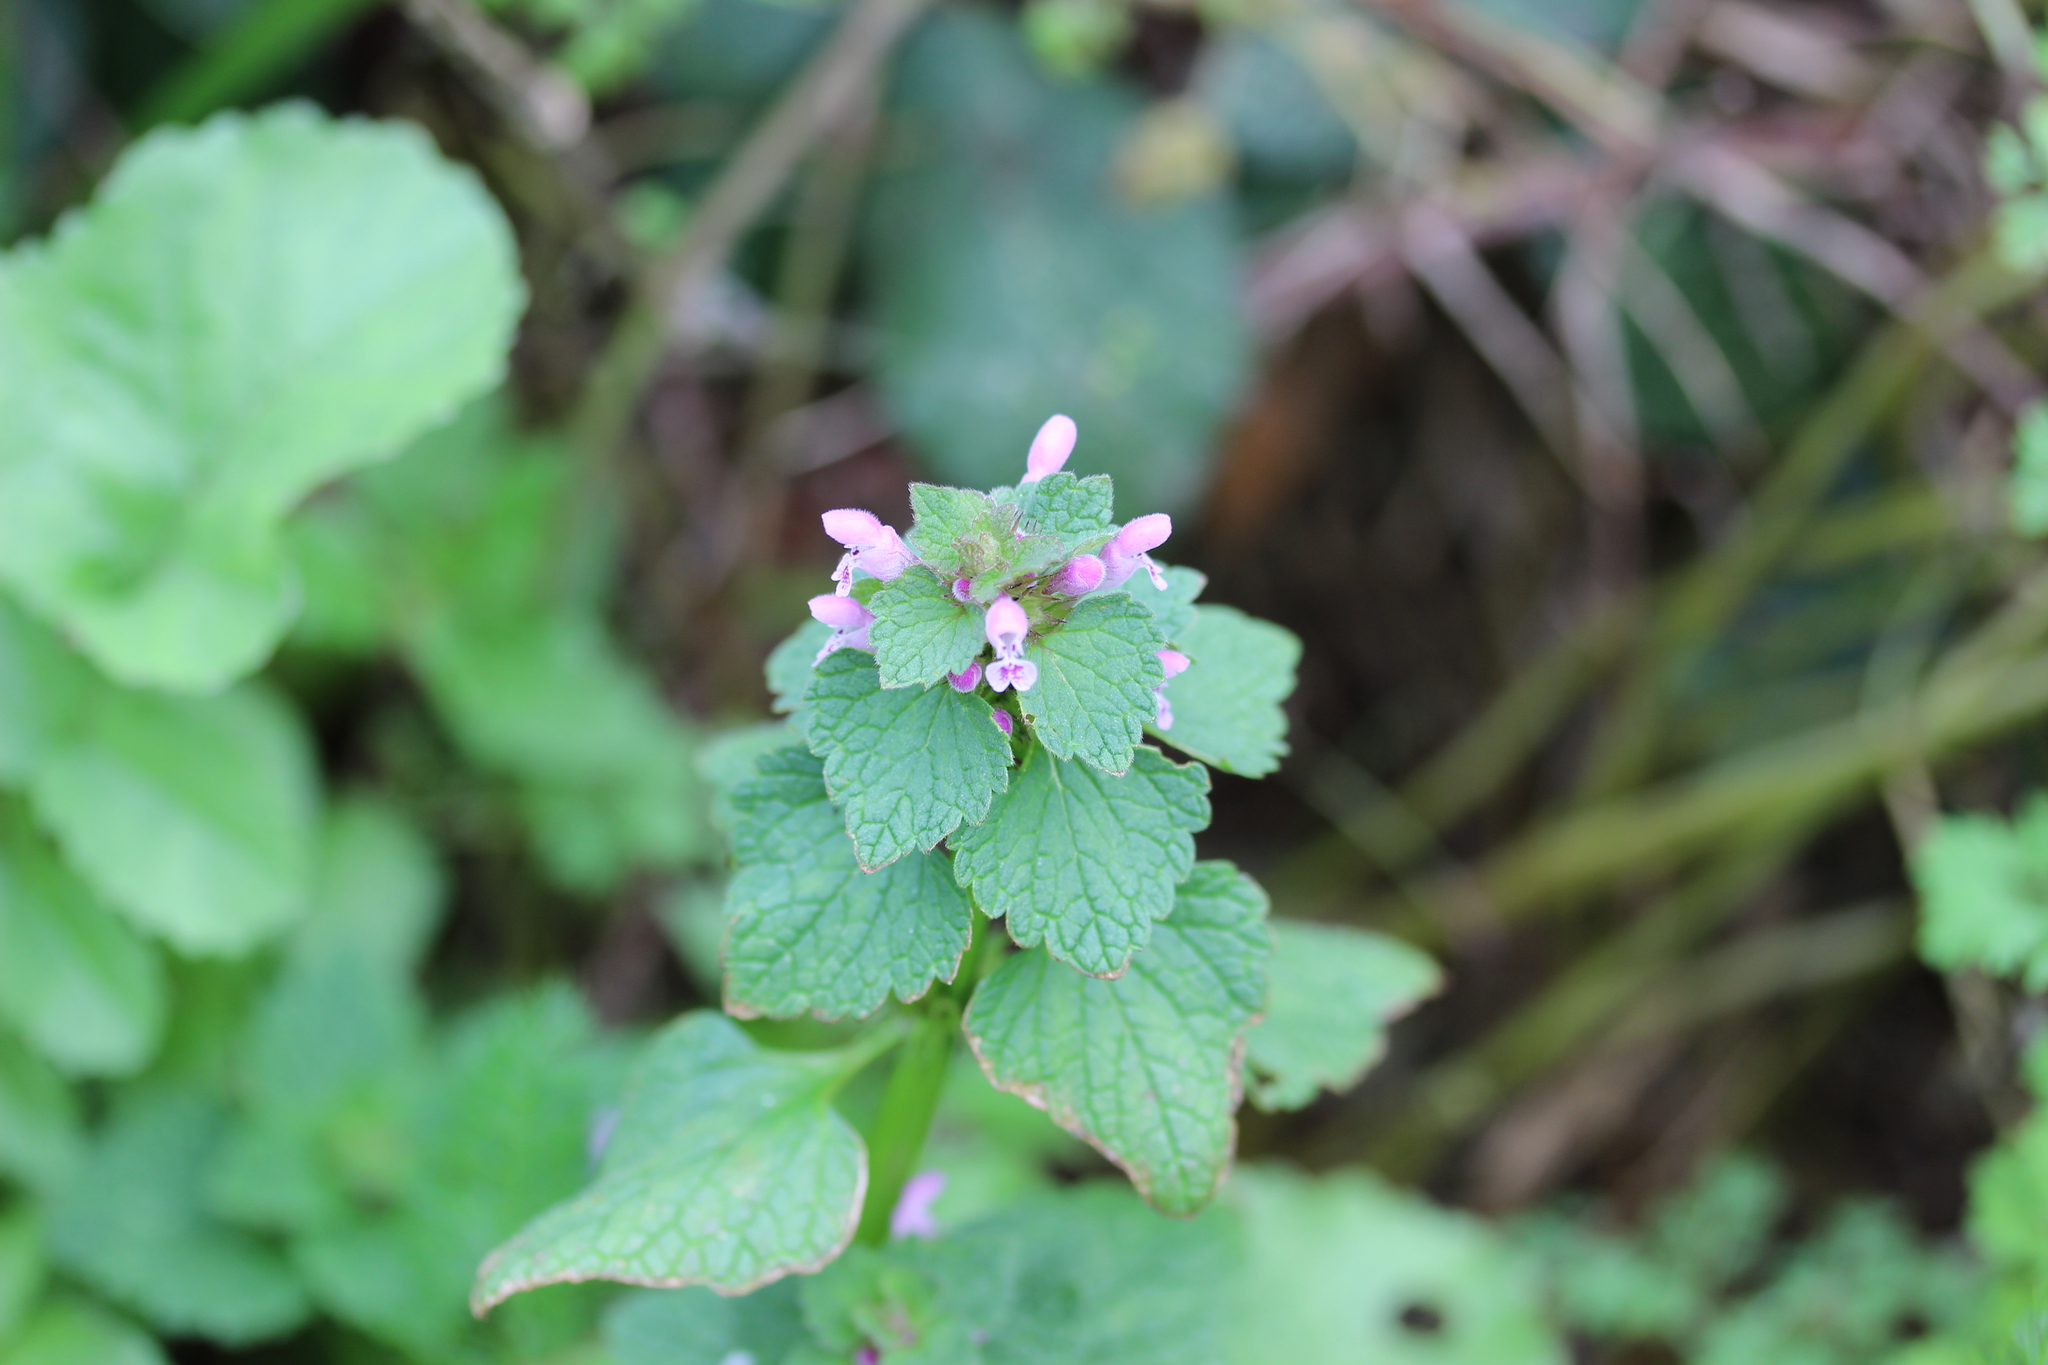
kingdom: Plantae
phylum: Tracheophyta
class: Magnoliopsida
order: Lamiales
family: Lamiaceae
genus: Lamium
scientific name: Lamium purpureum
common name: Red dead-nettle
